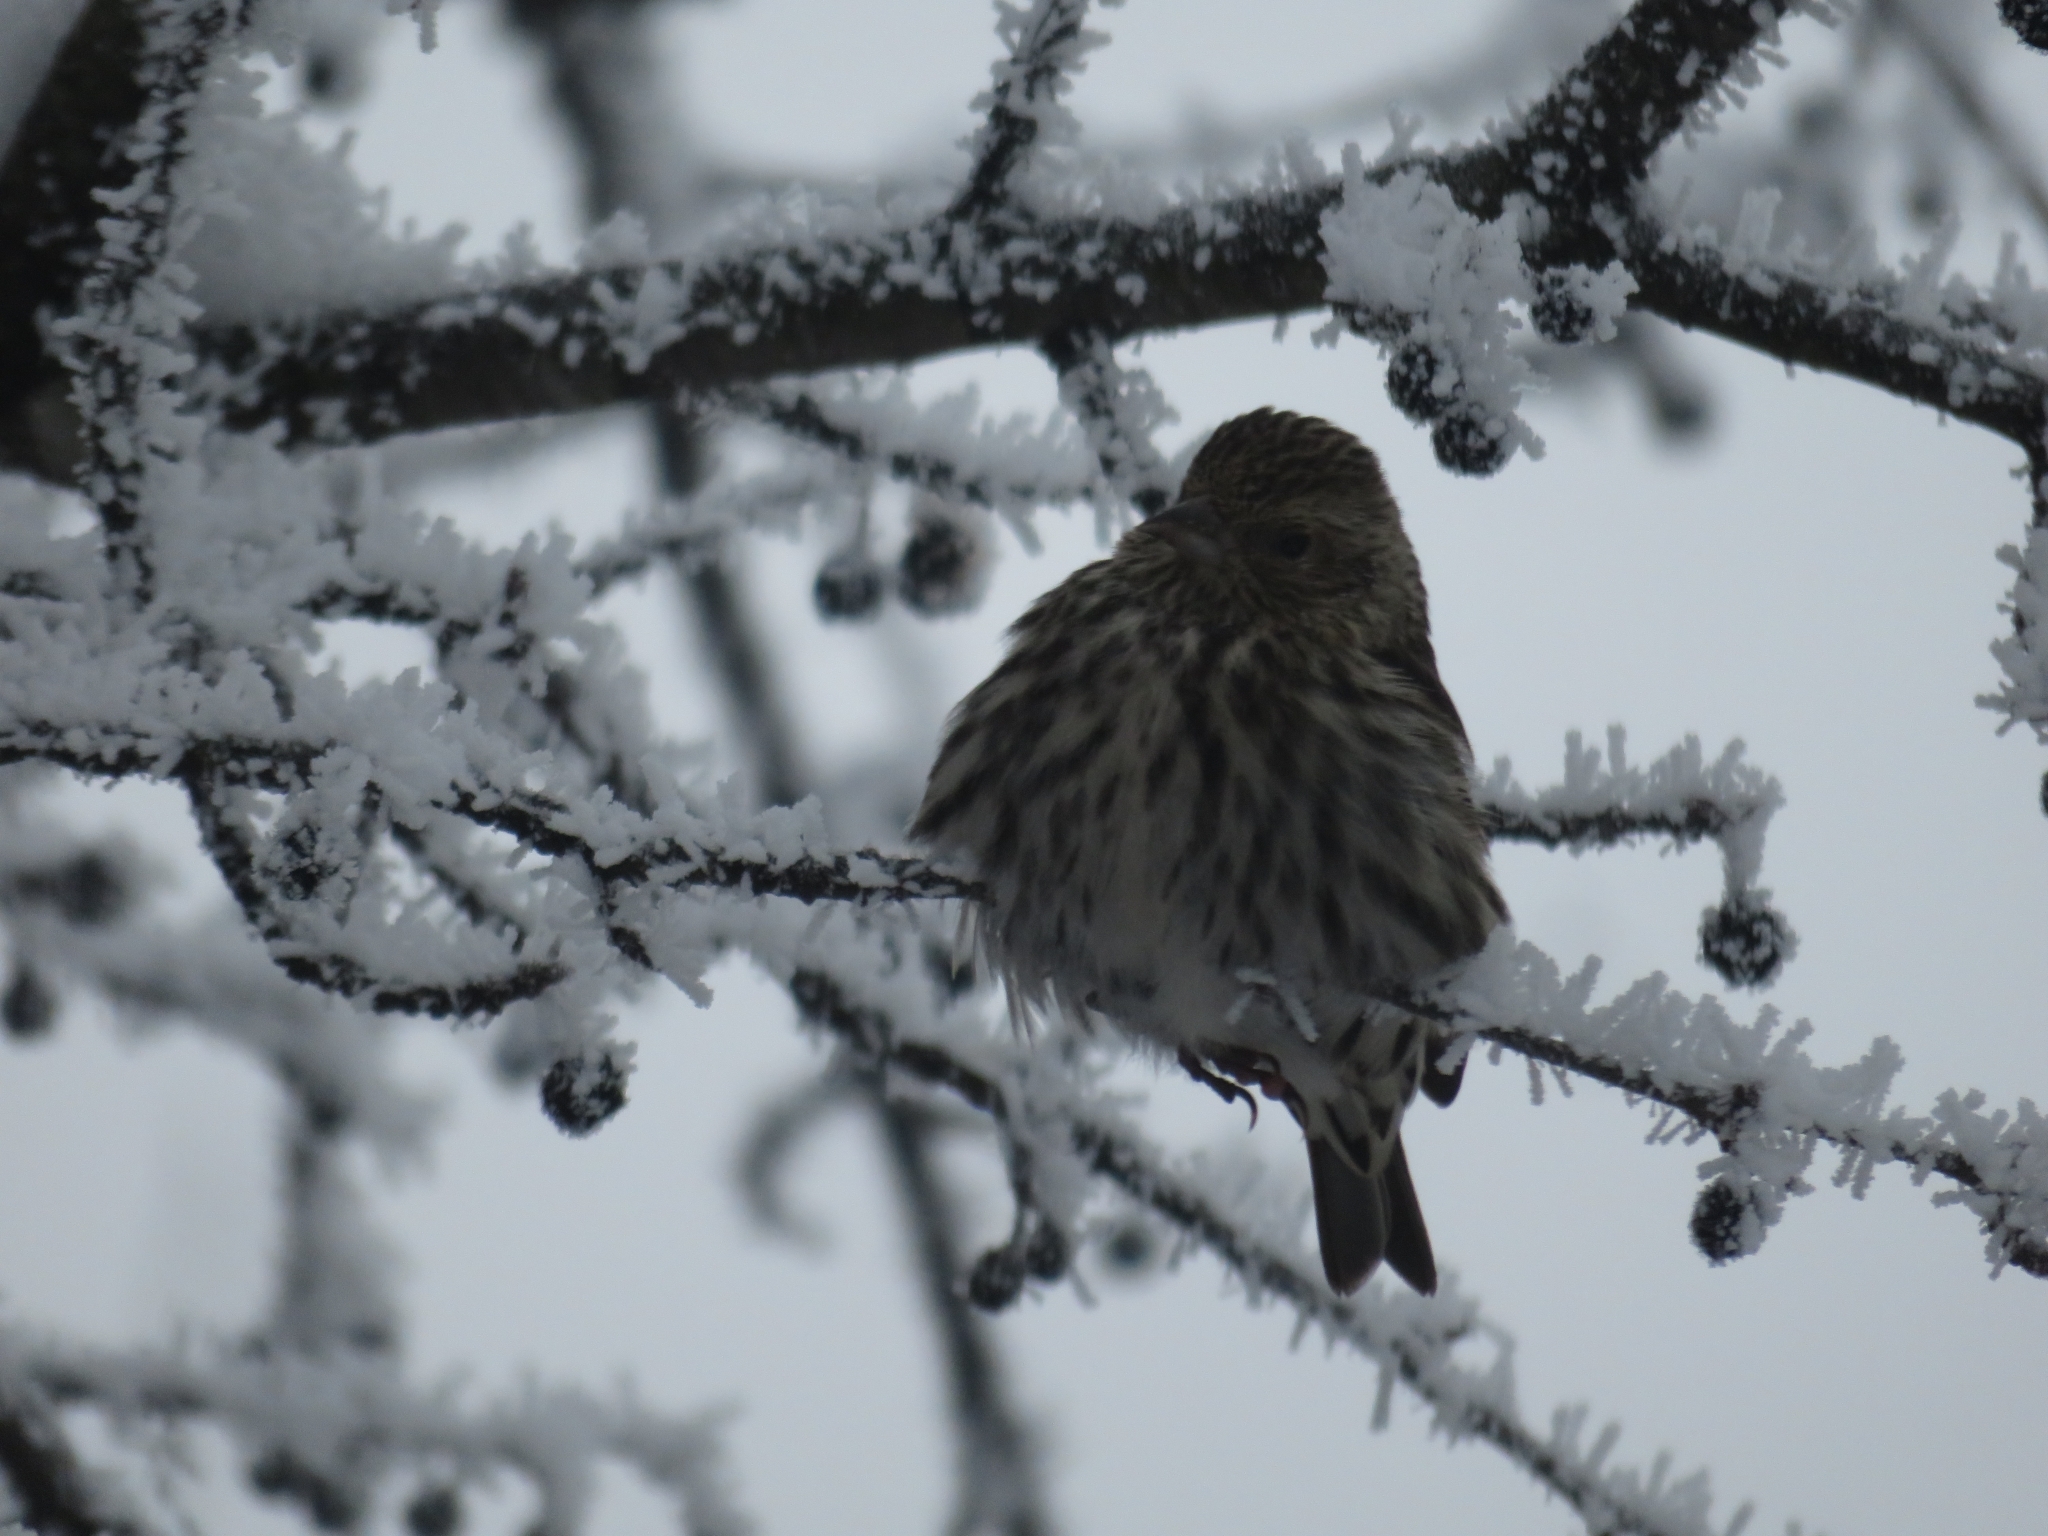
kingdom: Animalia
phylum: Chordata
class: Aves
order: Passeriformes
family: Fringillidae
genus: Spinus
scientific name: Spinus pinus
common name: Pine siskin
